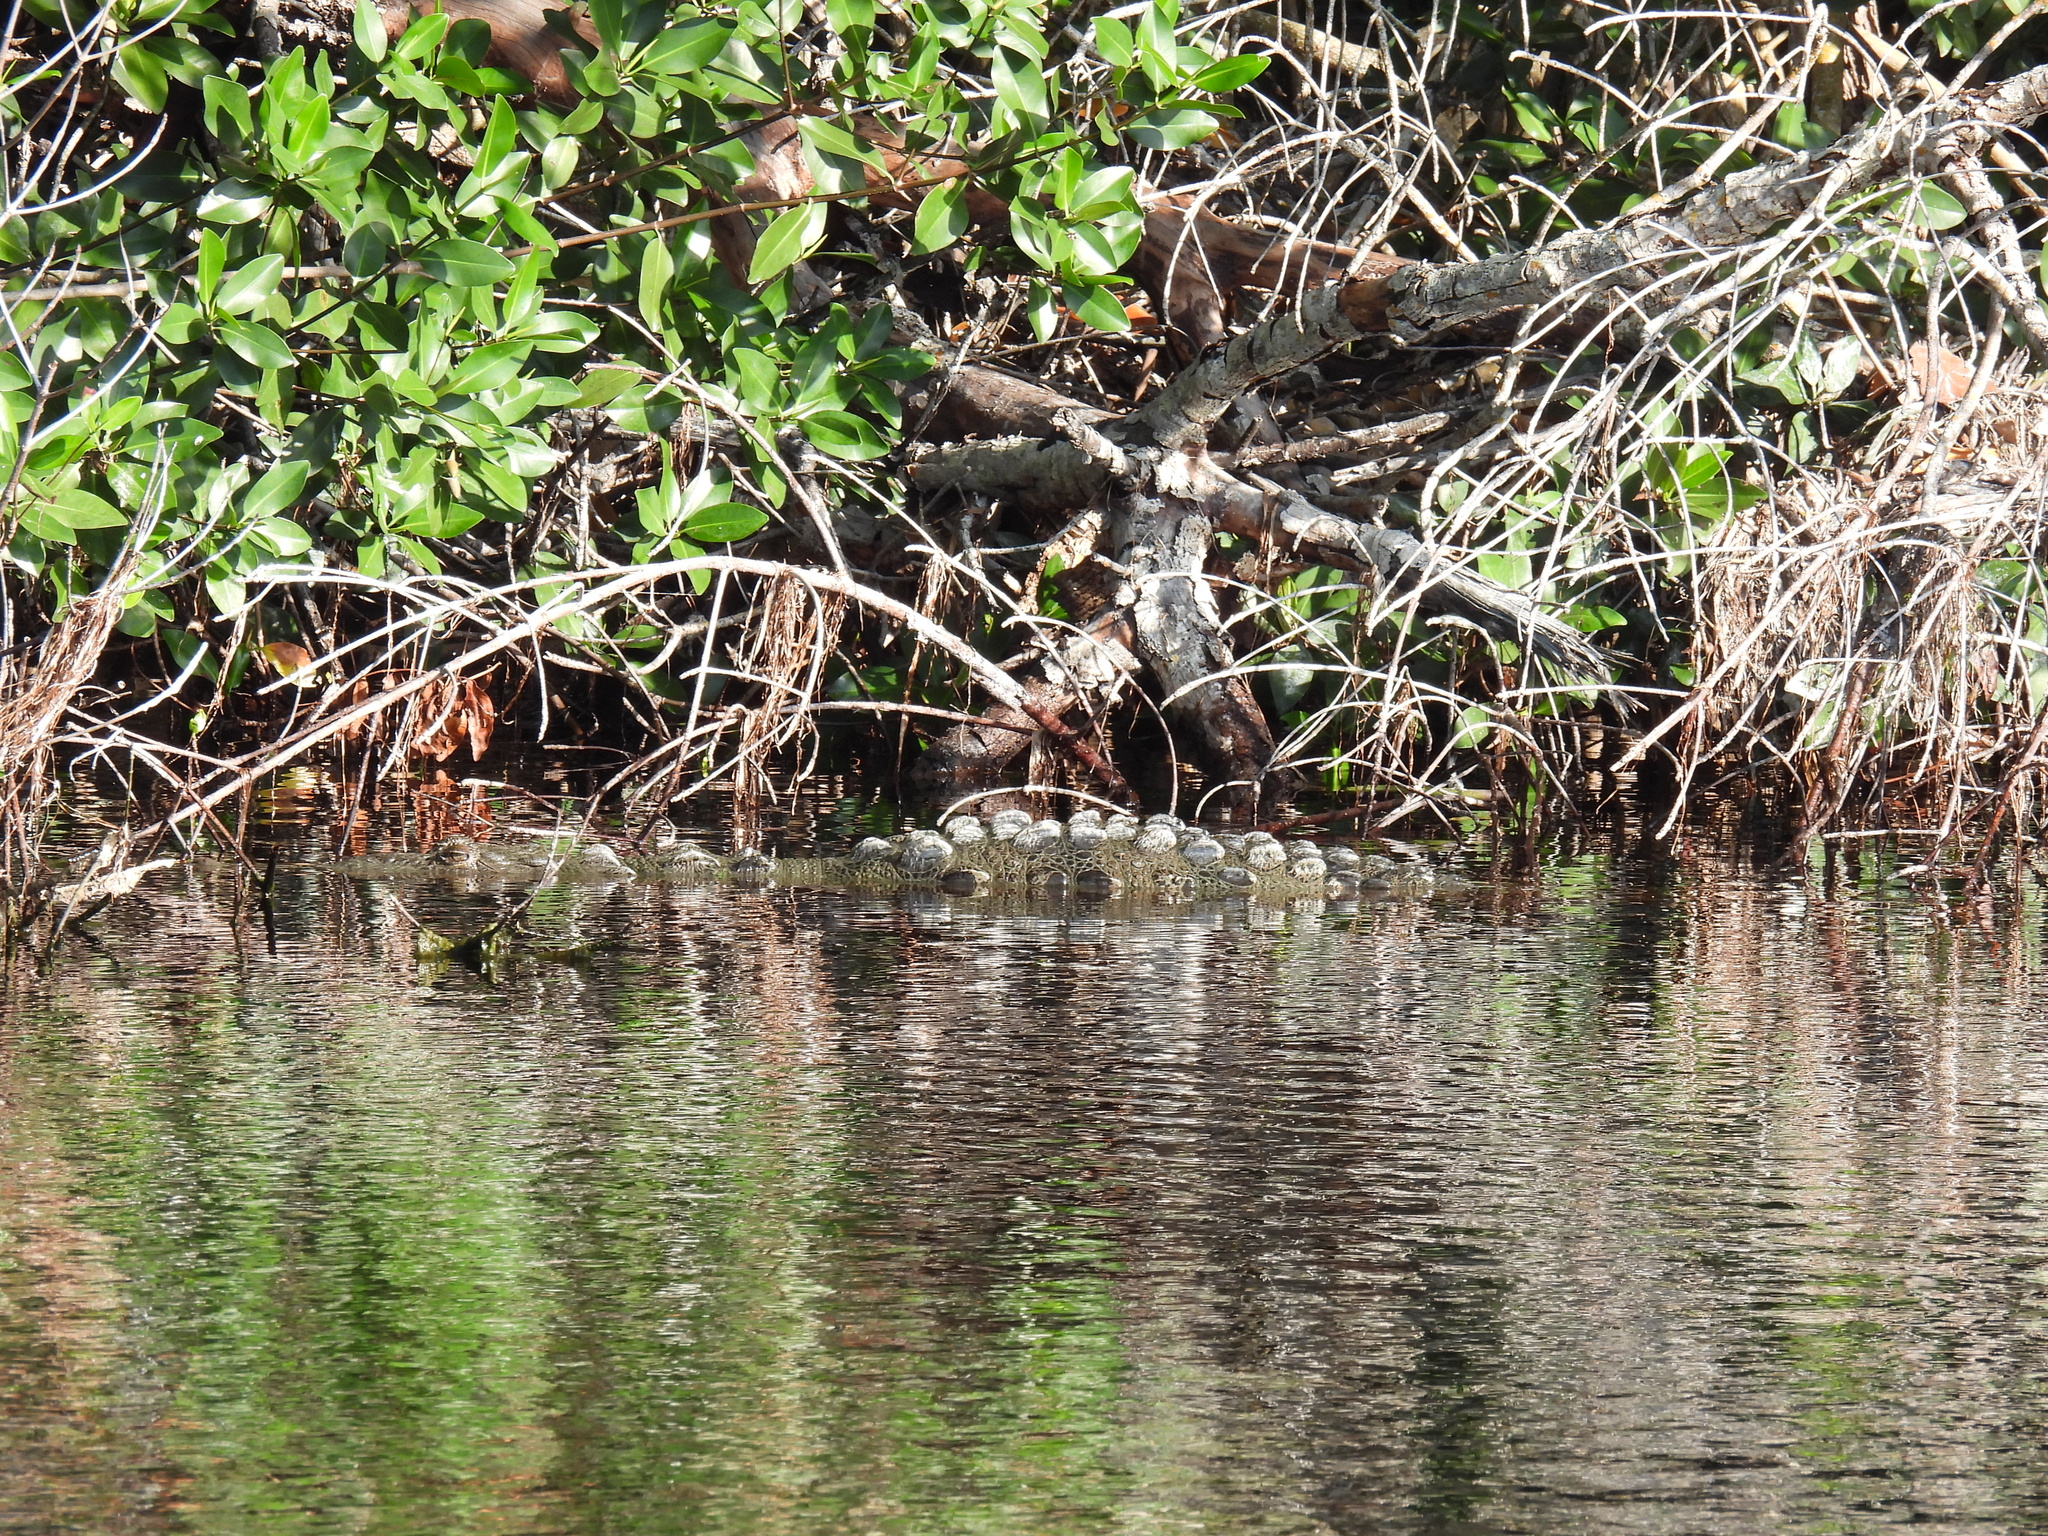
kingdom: Animalia
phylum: Chordata
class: Crocodylia
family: Crocodylidae
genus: Crocodylus
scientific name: Crocodylus acutus
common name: American crocodile
